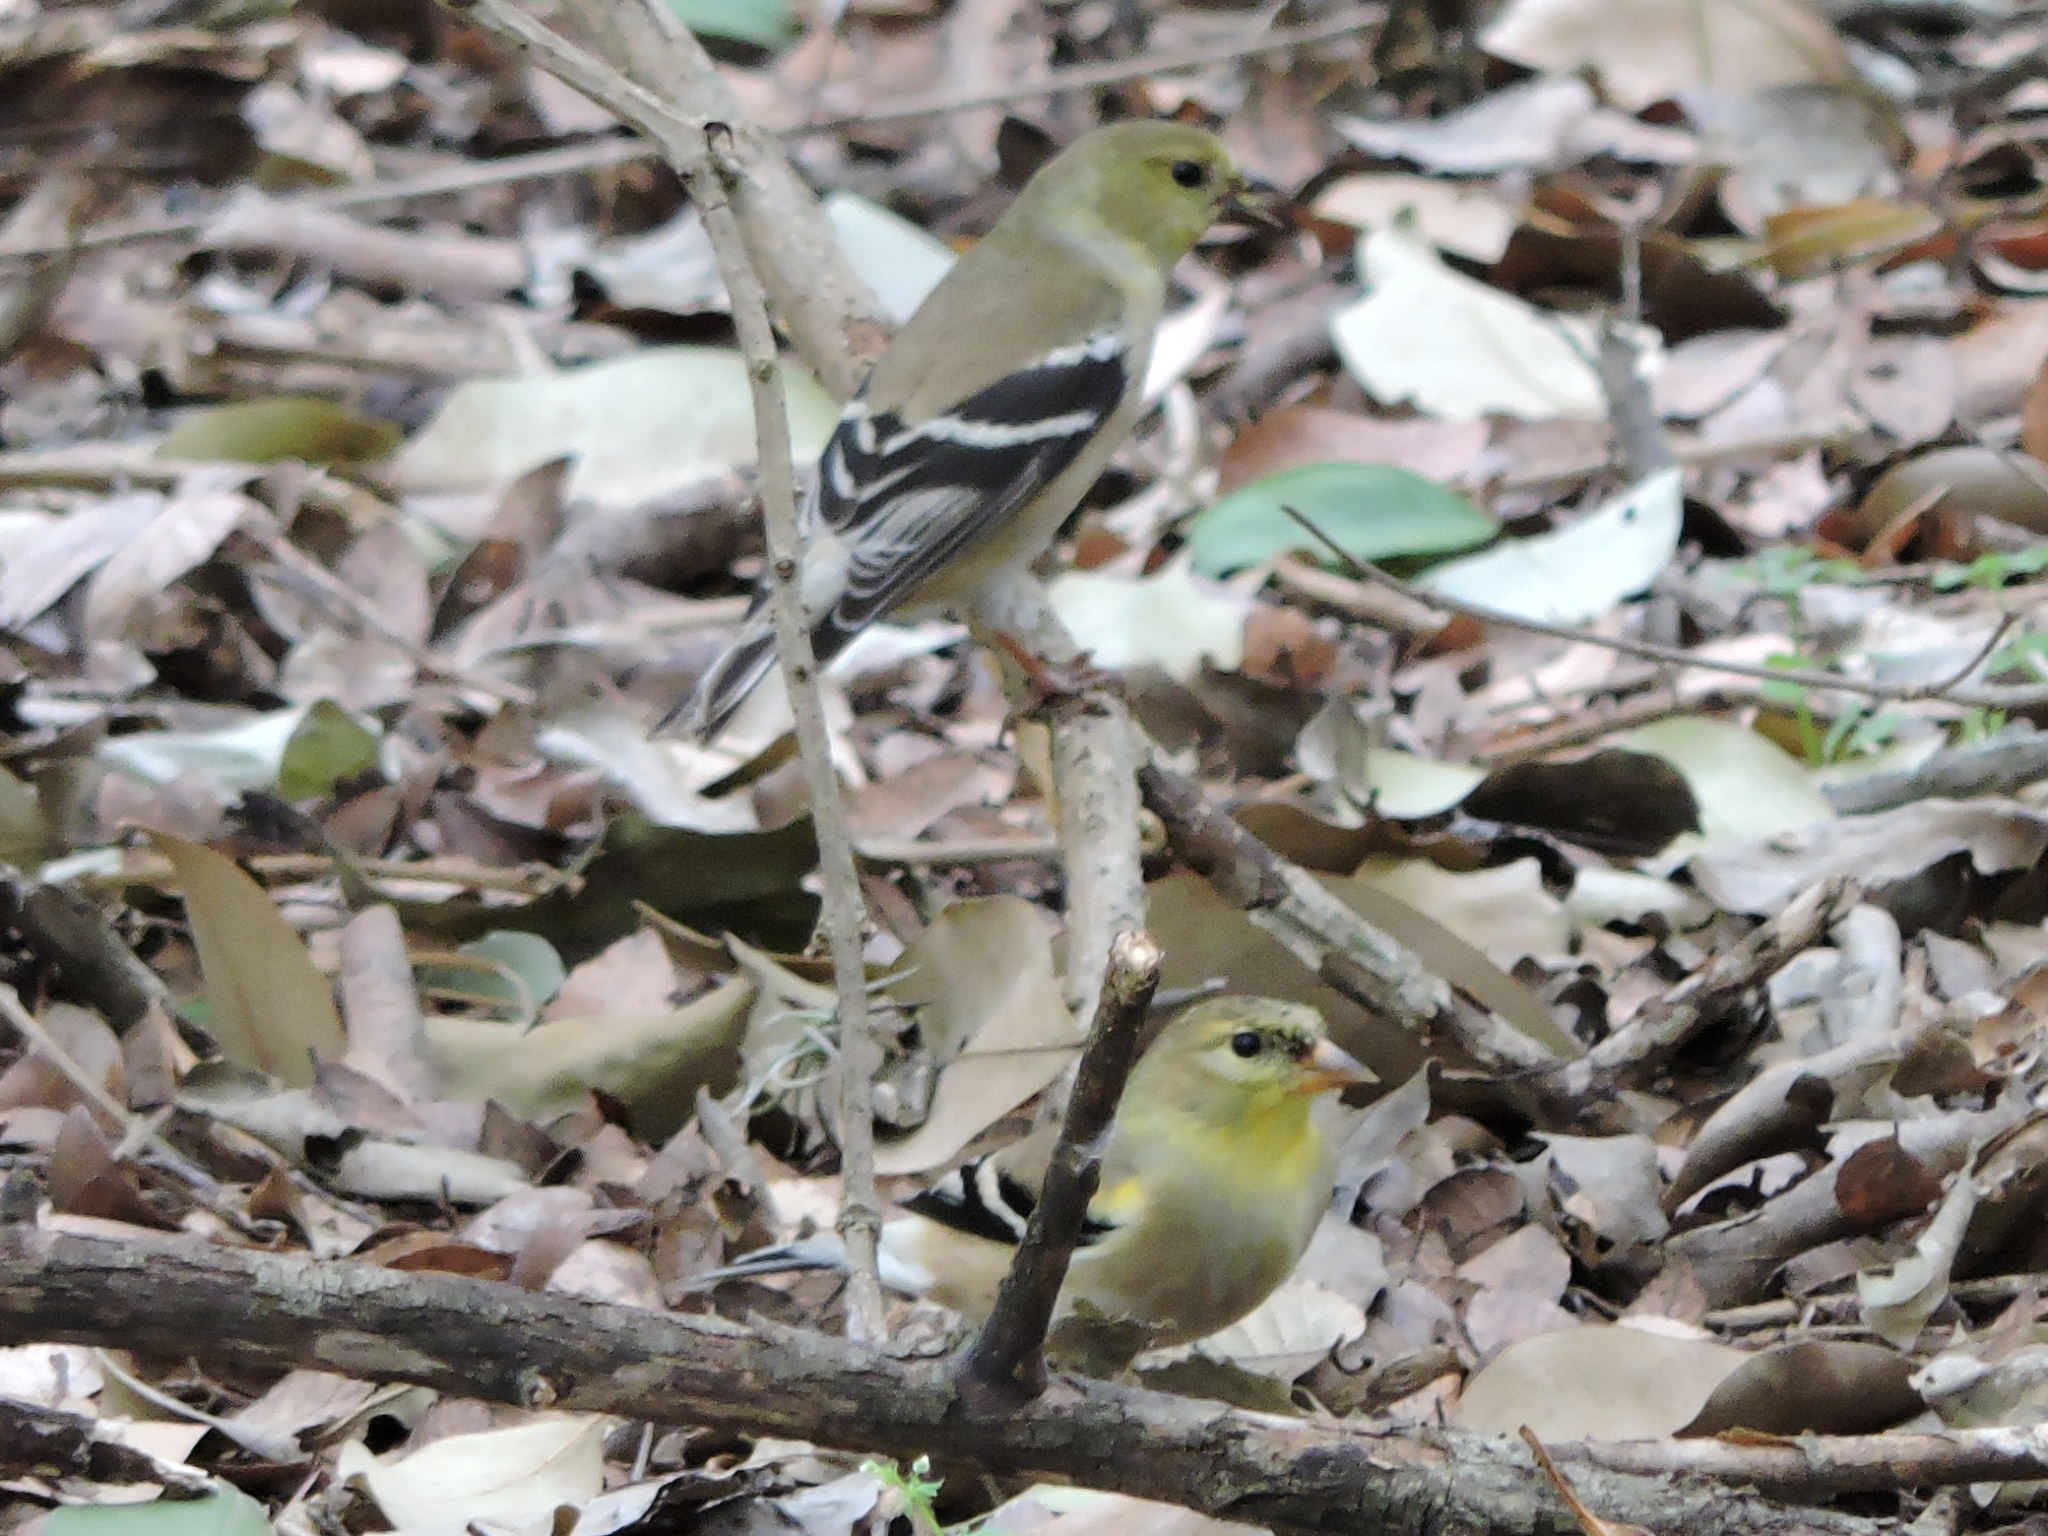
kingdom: Animalia
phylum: Chordata
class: Aves
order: Passeriformes
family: Fringillidae
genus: Spinus
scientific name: Spinus tristis
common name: American goldfinch
